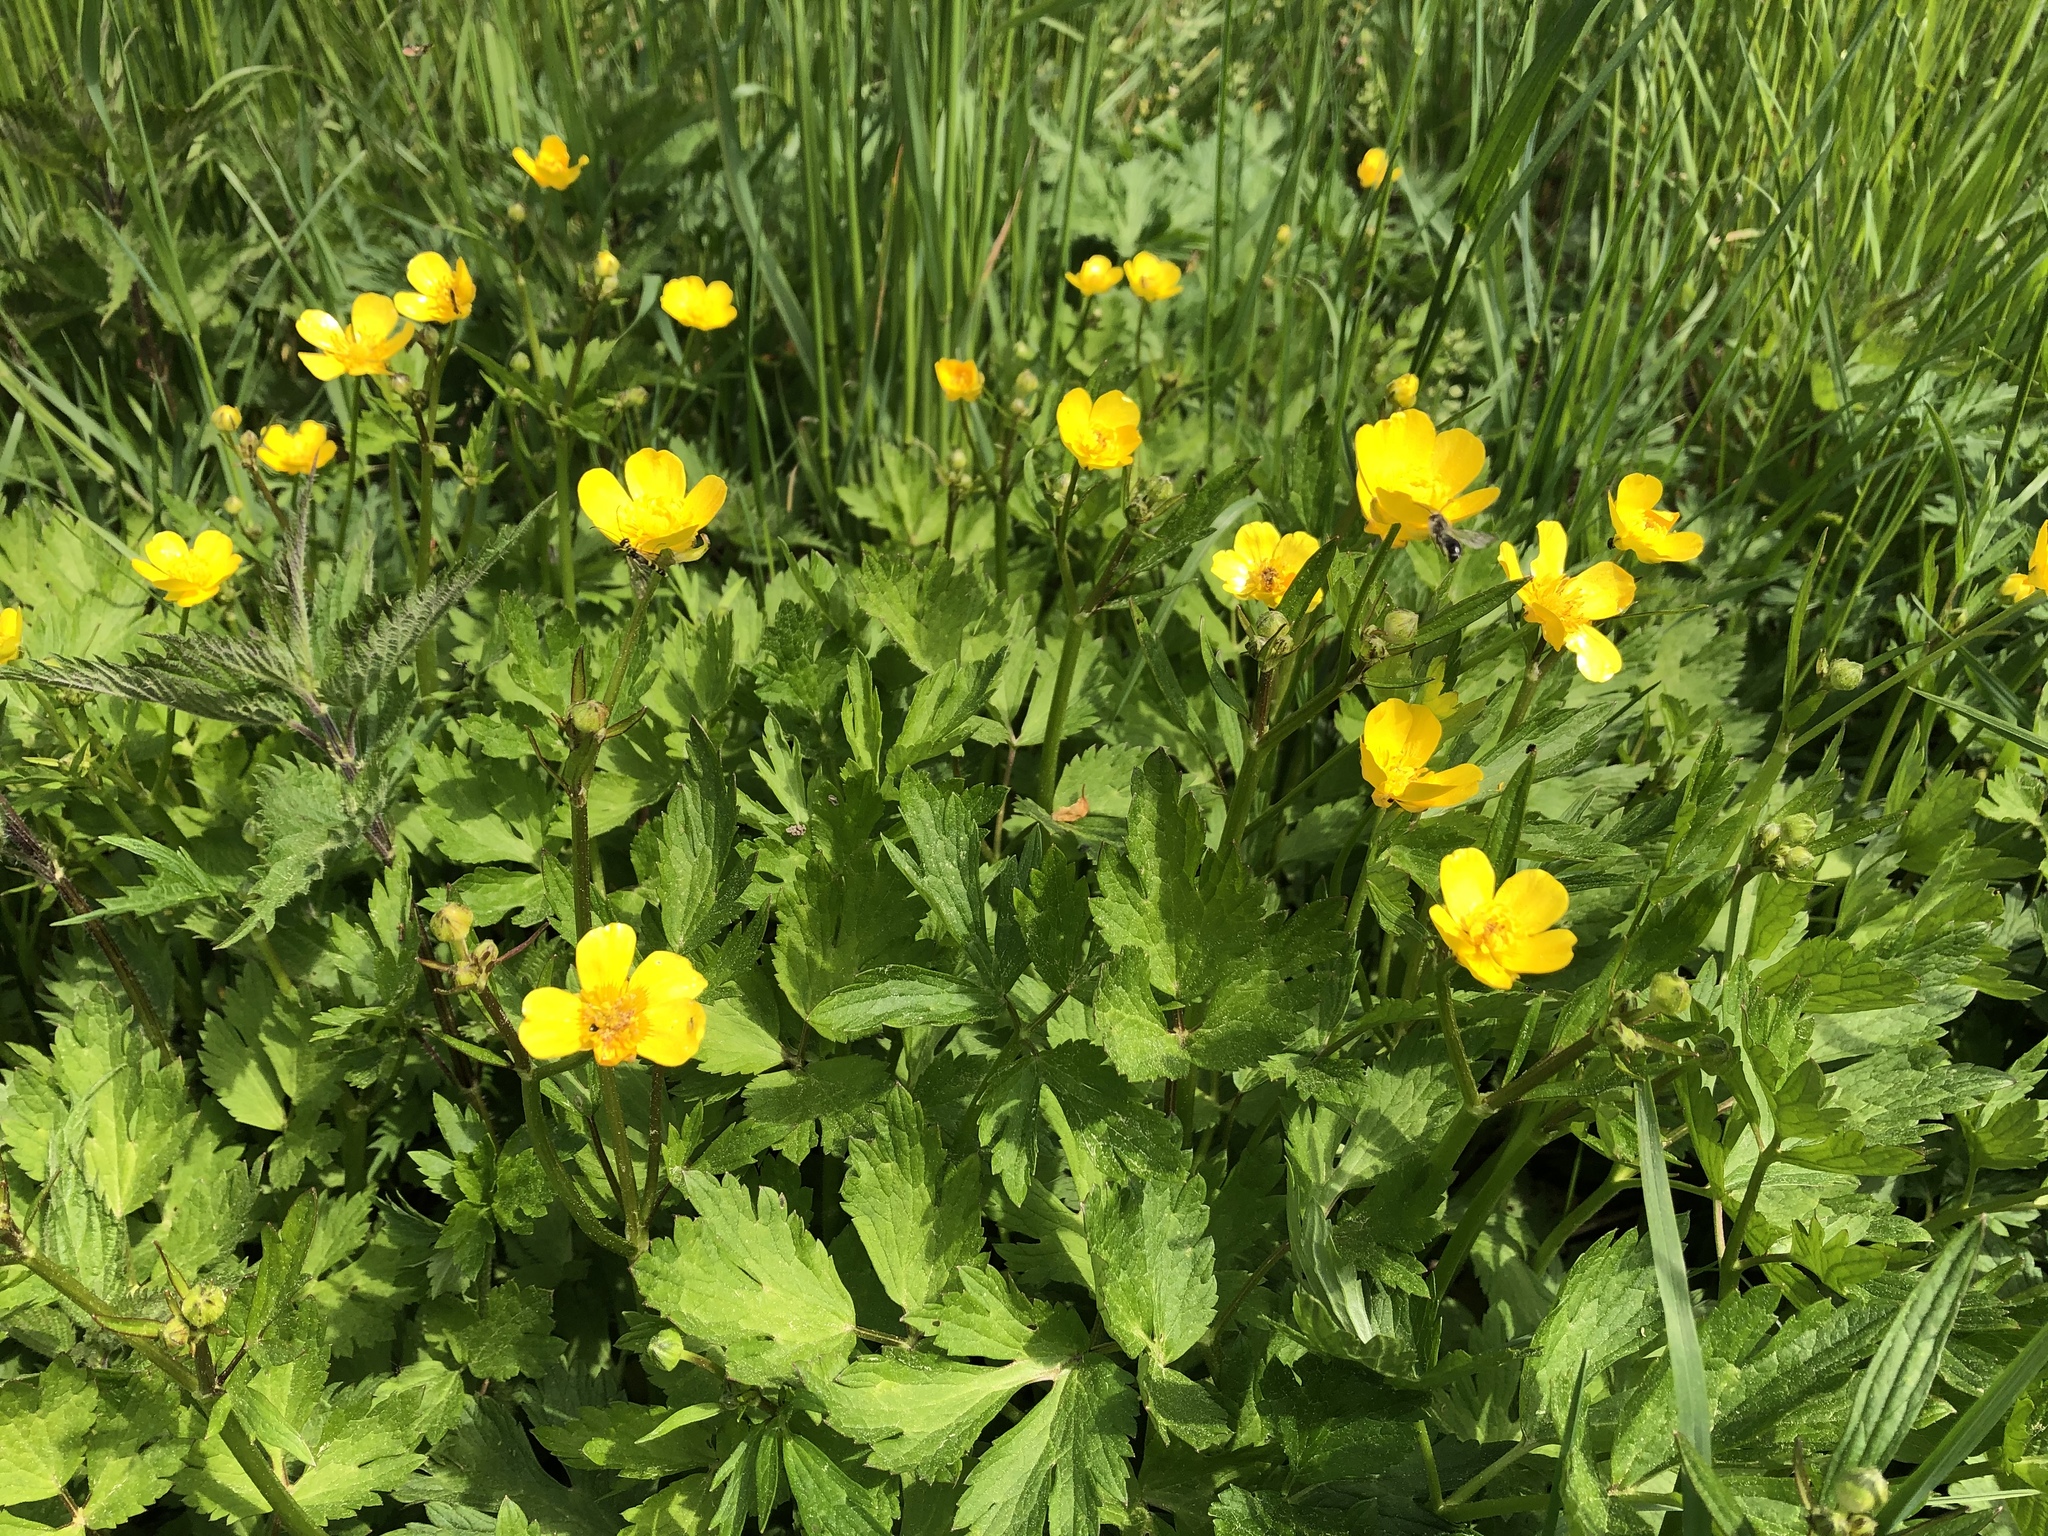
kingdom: Plantae
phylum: Tracheophyta
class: Magnoliopsida
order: Ranunculales
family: Ranunculaceae
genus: Ranunculus
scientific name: Ranunculus repens
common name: Creeping buttercup
